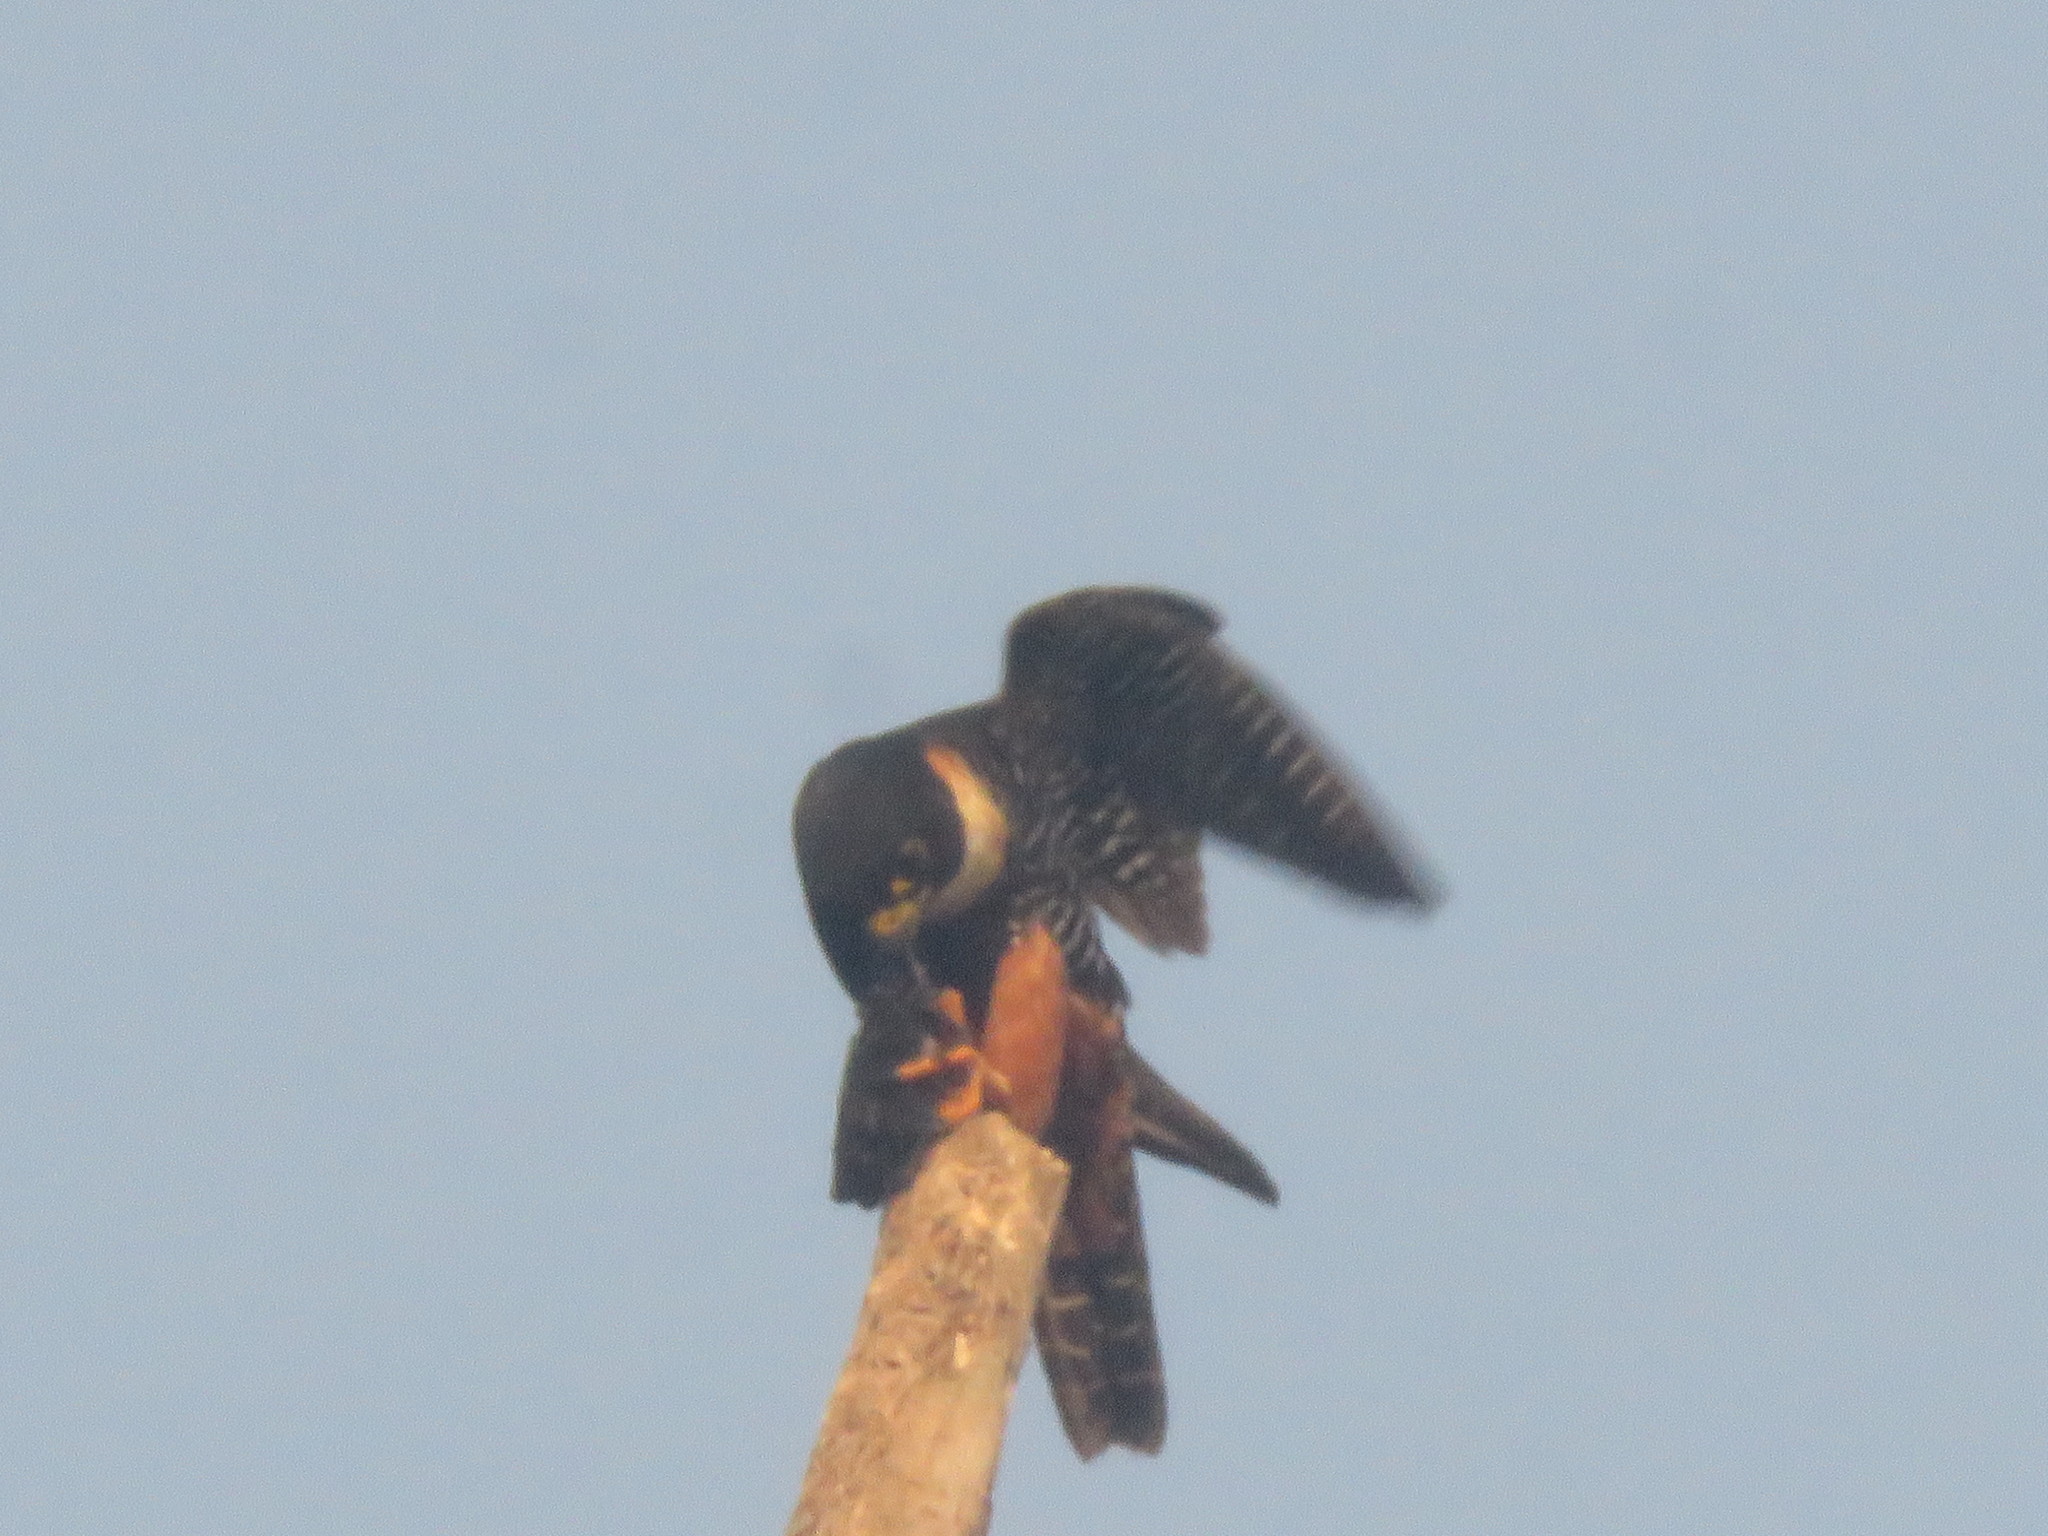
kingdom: Animalia
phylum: Chordata
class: Aves
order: Falconiformes
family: Falconidae
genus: Falco
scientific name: Falco rufigularis
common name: Bat falcon
